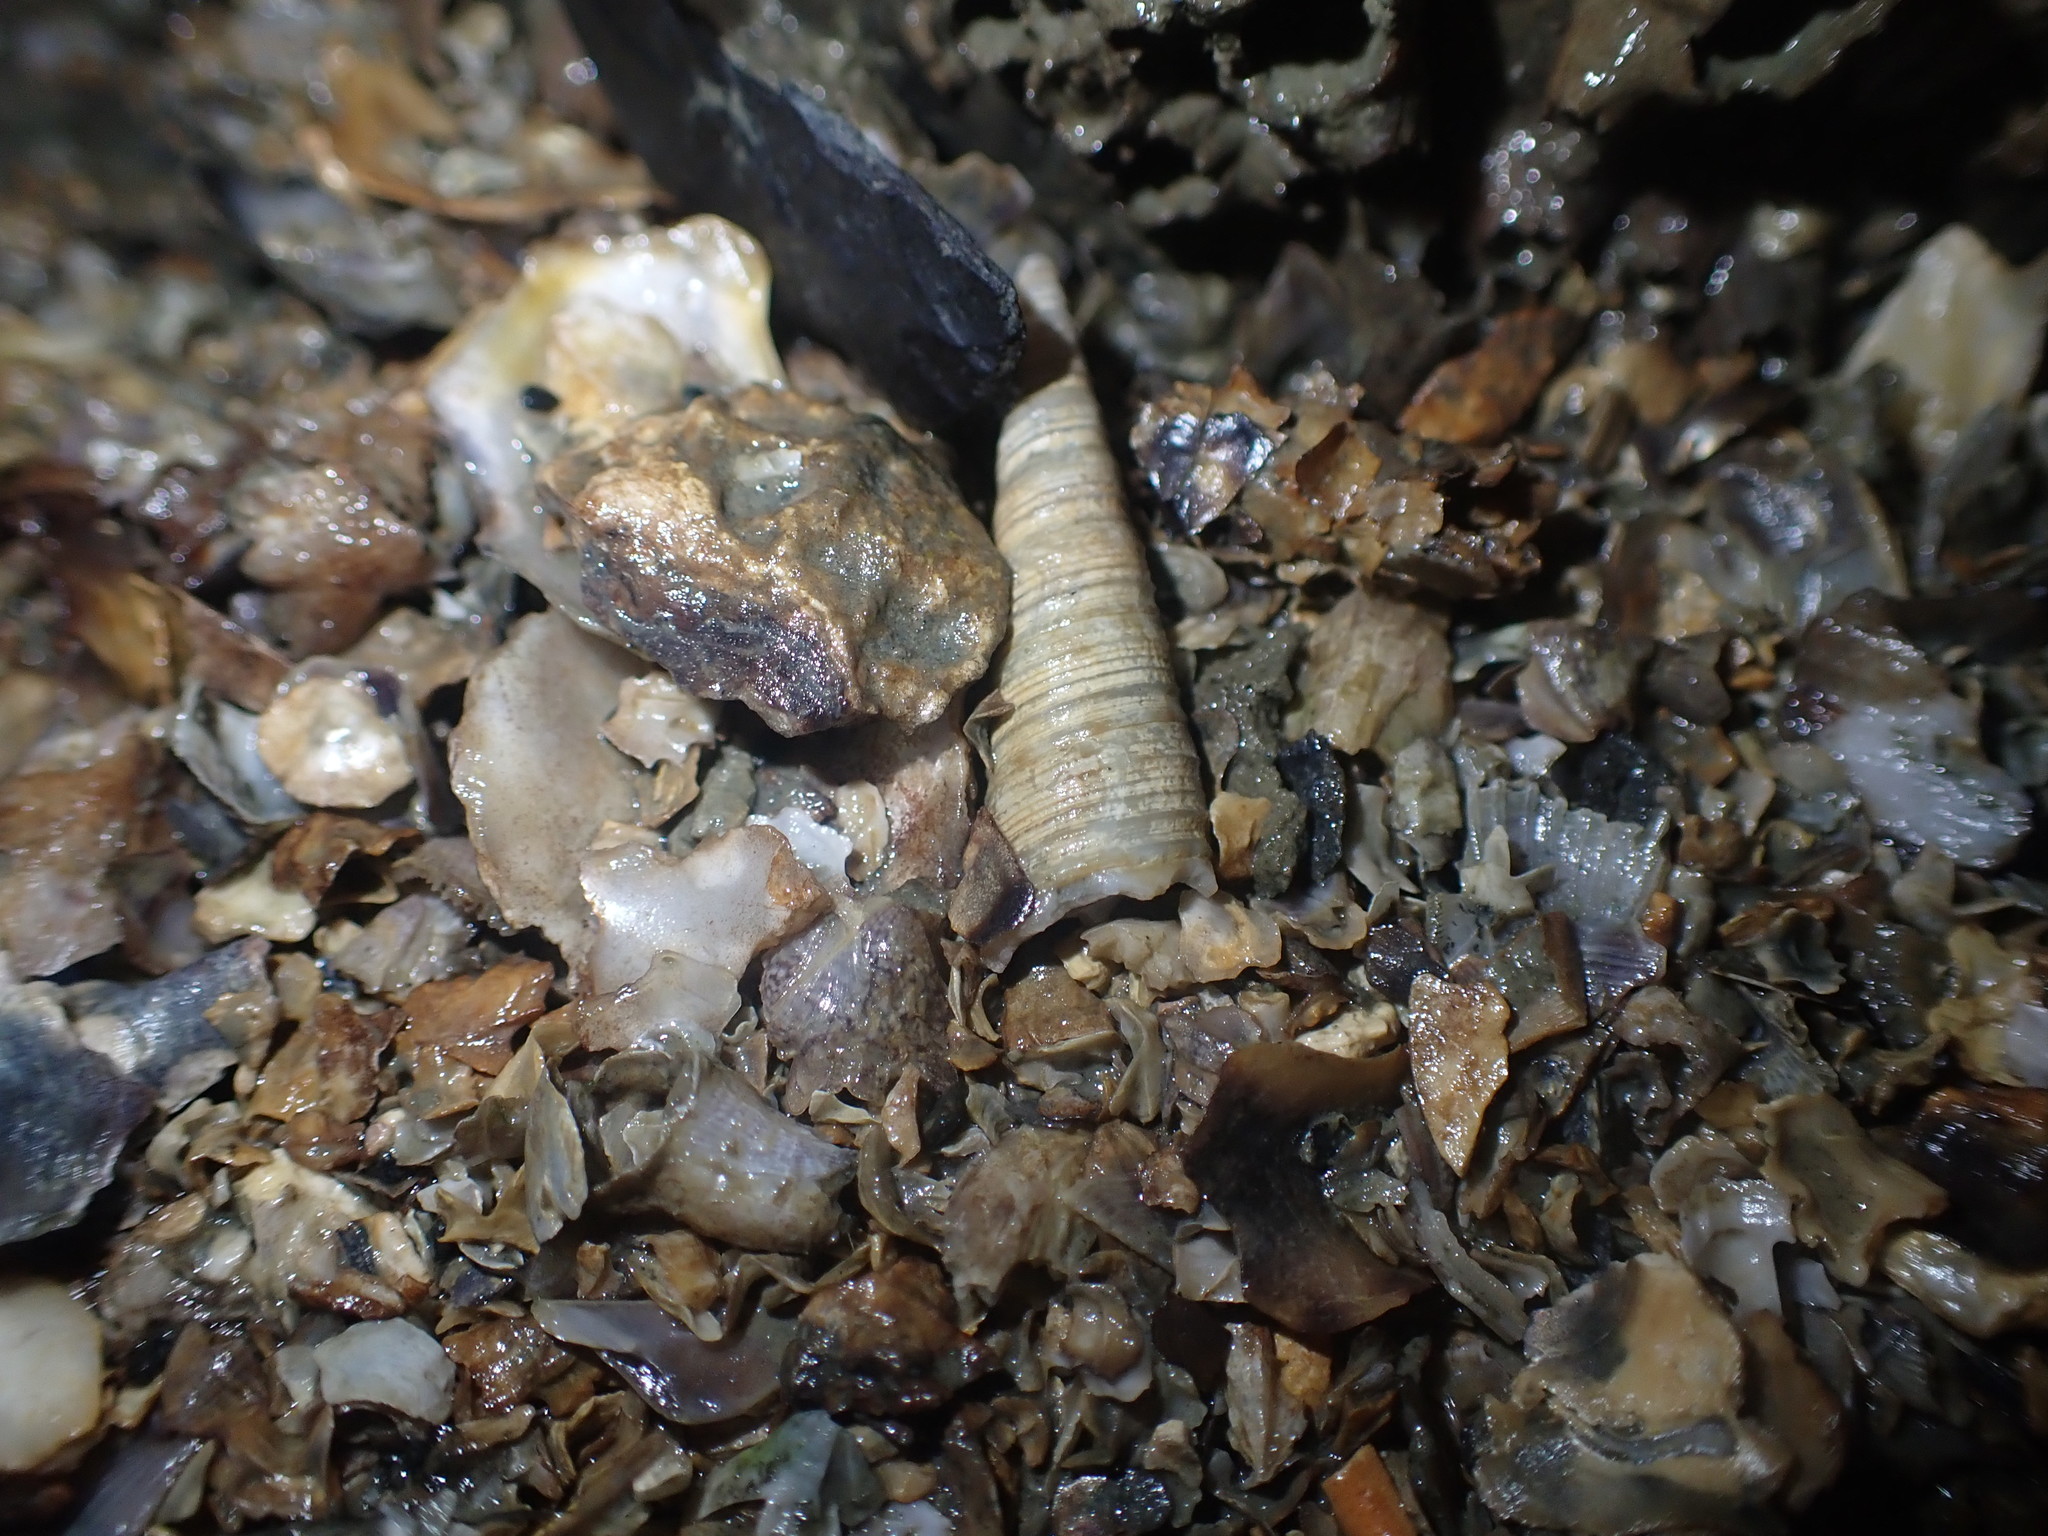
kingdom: Animalia
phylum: Mollusca
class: Gastropoda
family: Turritellidae
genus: Maoricolpus
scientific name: Maoricolpus roseus
